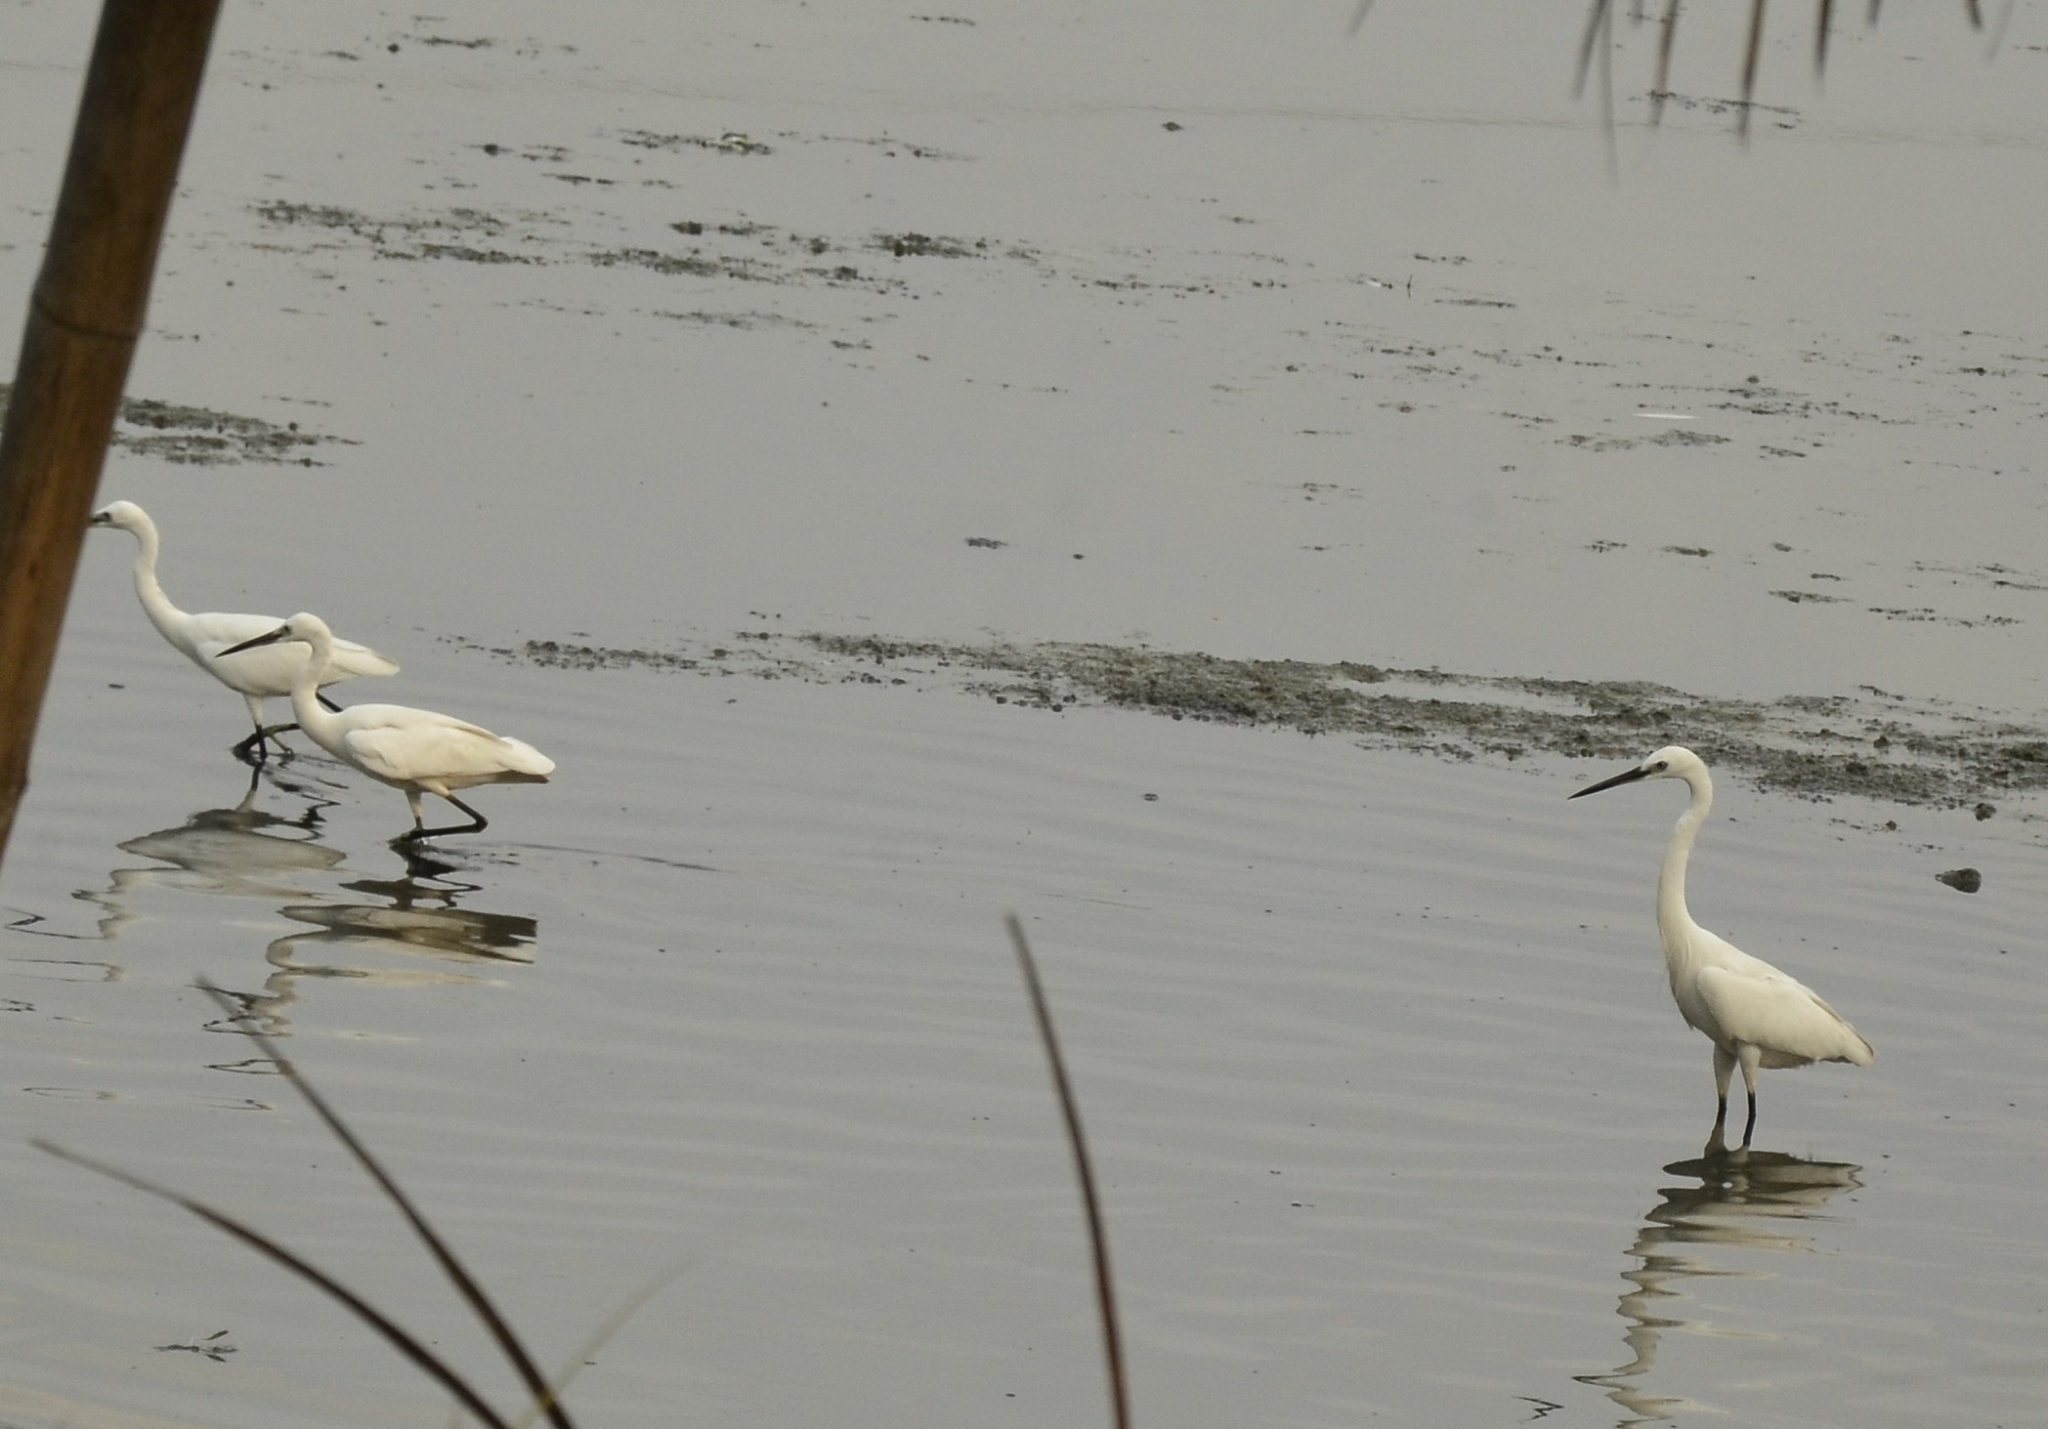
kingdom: Animalia
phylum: Chordata
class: Aves
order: Pelecaniformes
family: Ardeidae
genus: Egretta
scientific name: Egretta garzetta
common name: Little egret
